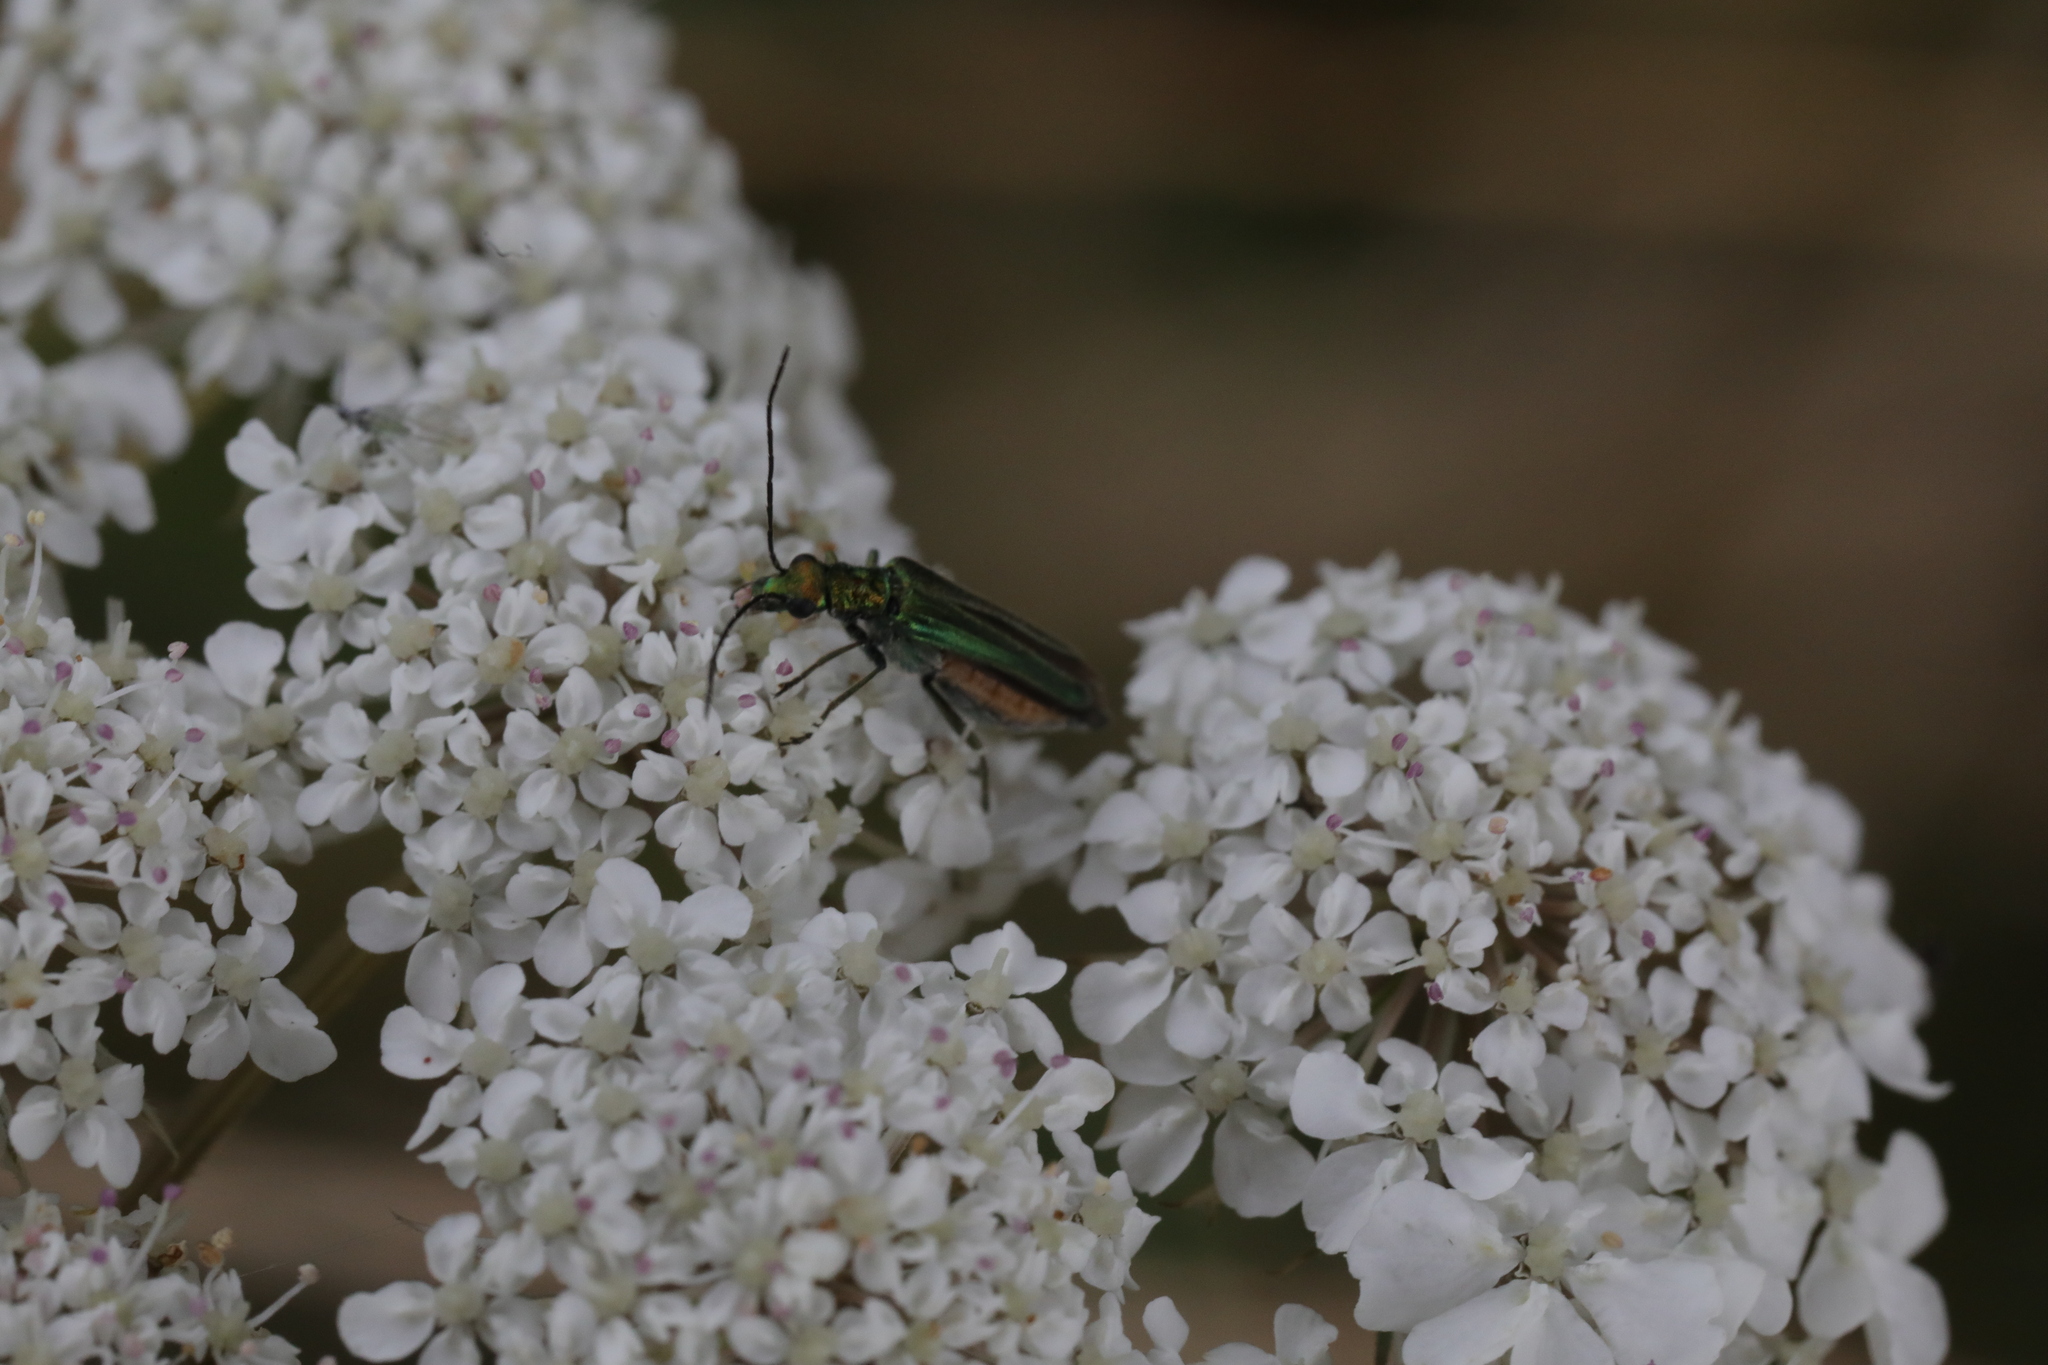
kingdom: Animalia
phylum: Arthropoda
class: Insecta
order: Coleoptera
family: Oedemeridae
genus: Oedemera
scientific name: Oedemera nobilis
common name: Swollen-thighed beetle
